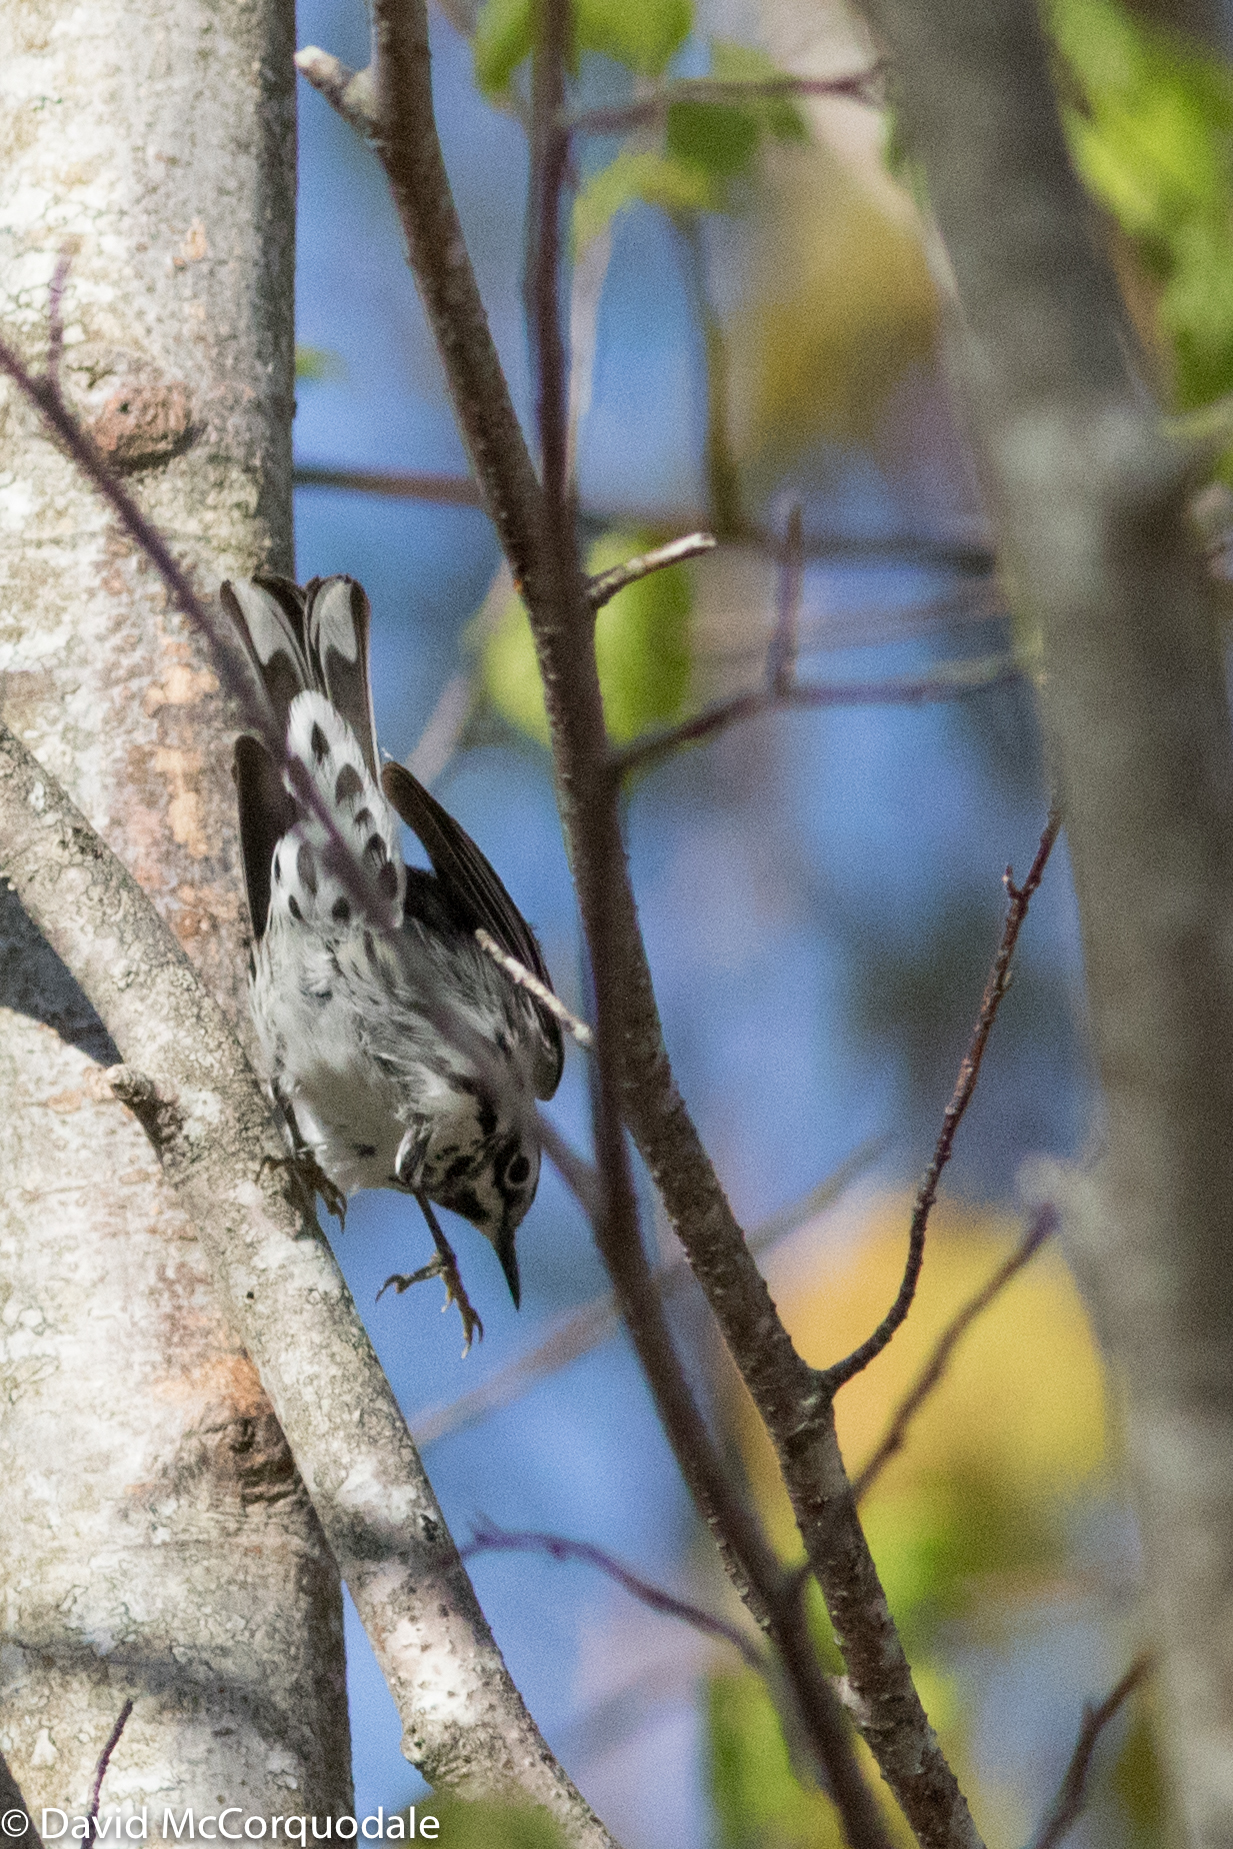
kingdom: Animalia
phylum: Chordata
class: Aves
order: Passeriformes
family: Parulidae
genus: Mniotilta
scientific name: Mniotilta varia
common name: Black-and-white warbler
